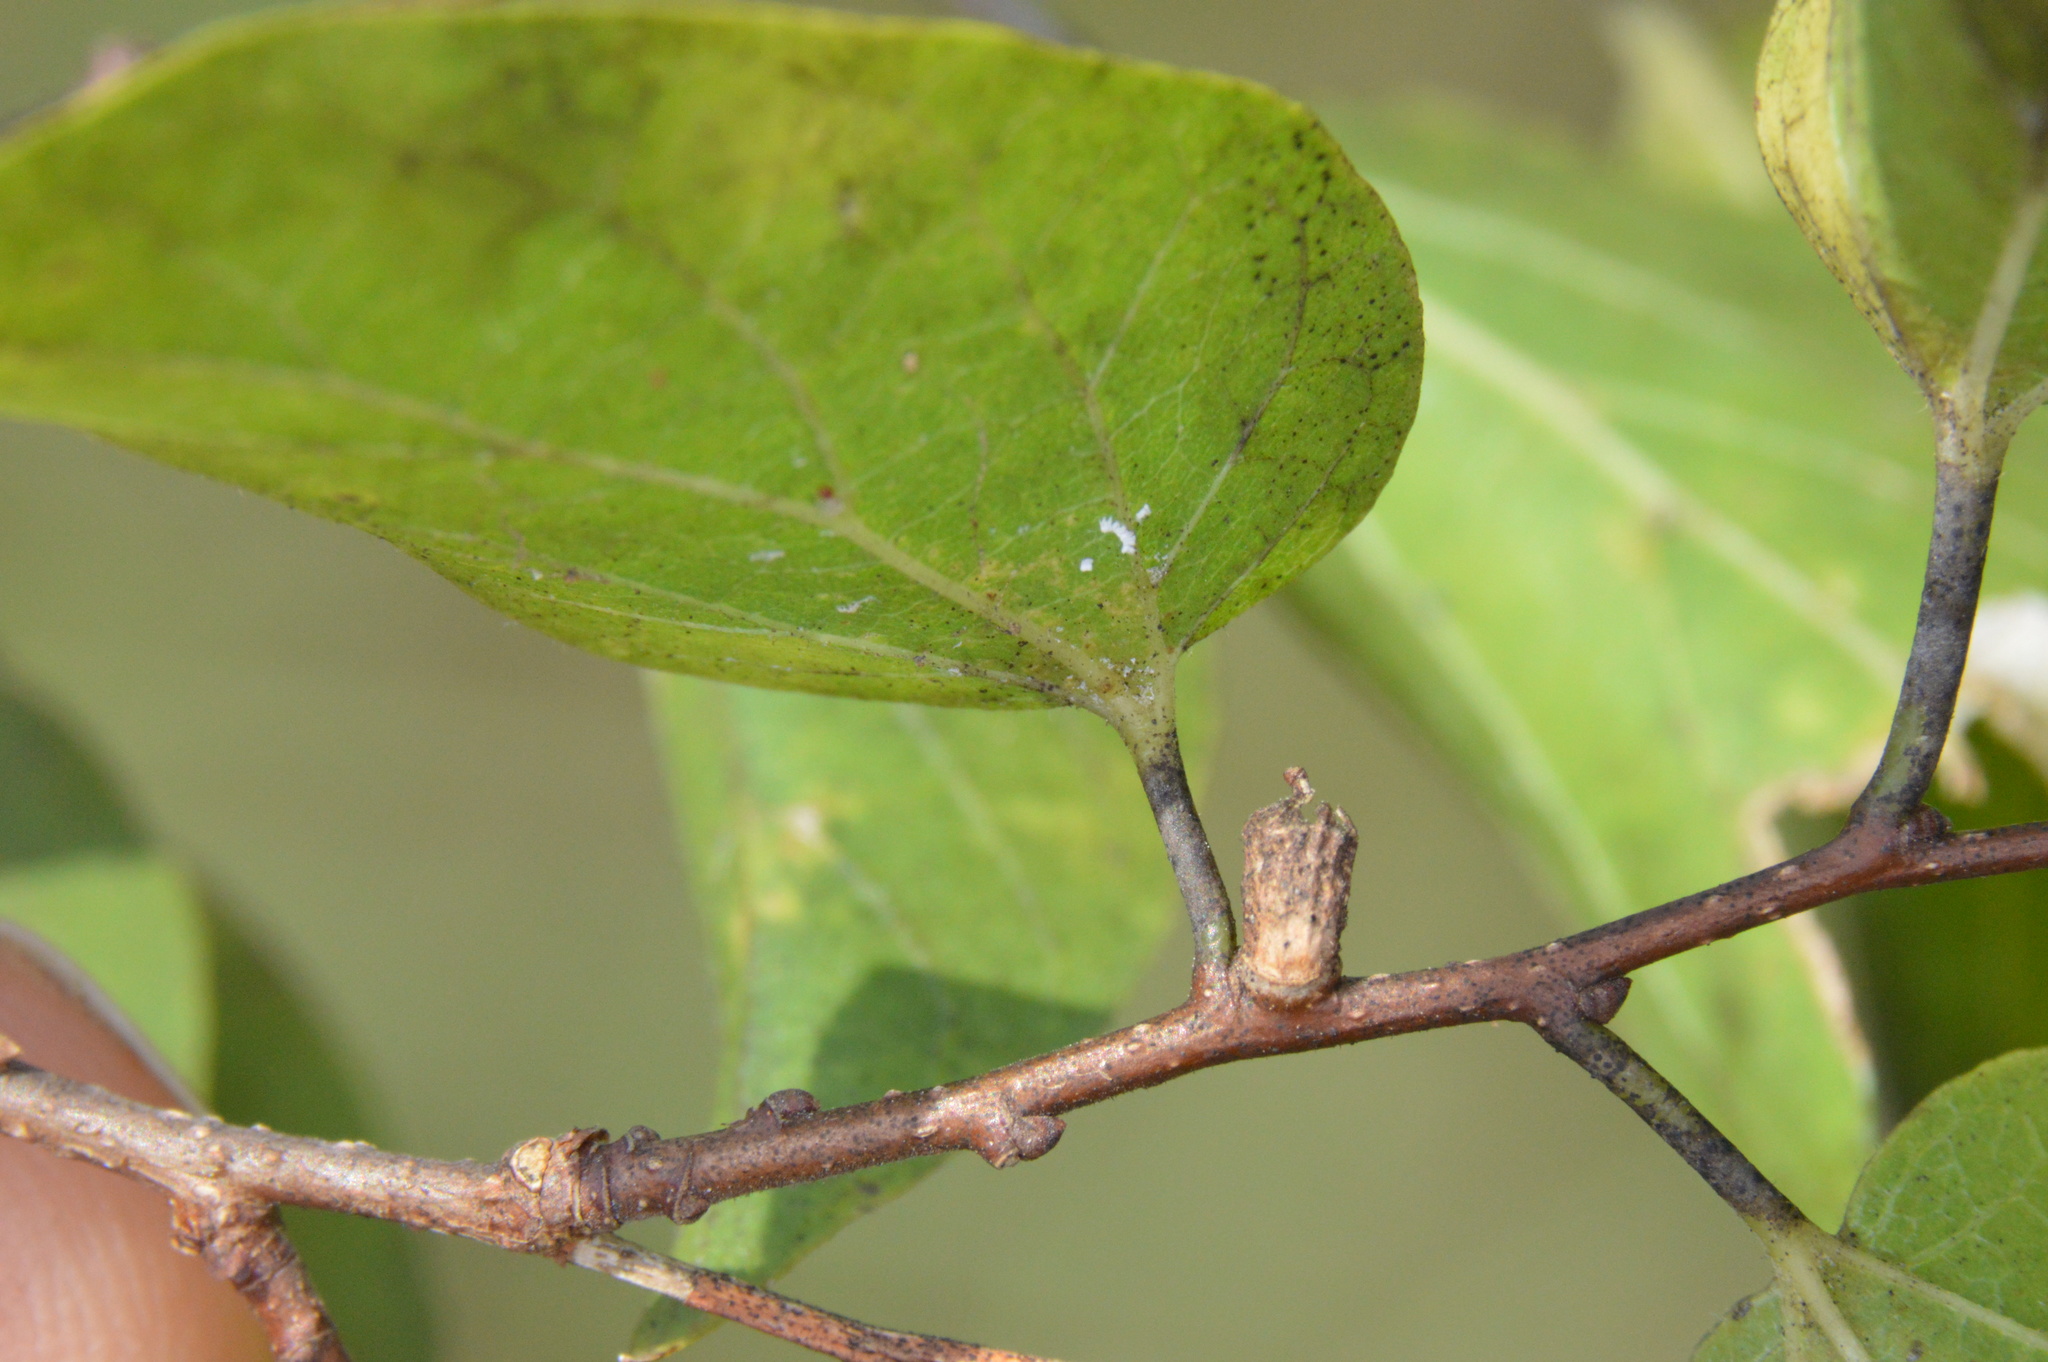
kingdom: Animalia
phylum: Arthropoda
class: Insecta
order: Diptera
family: Cecidomyiidae
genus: Celticecis
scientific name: Celticecis ramicola
